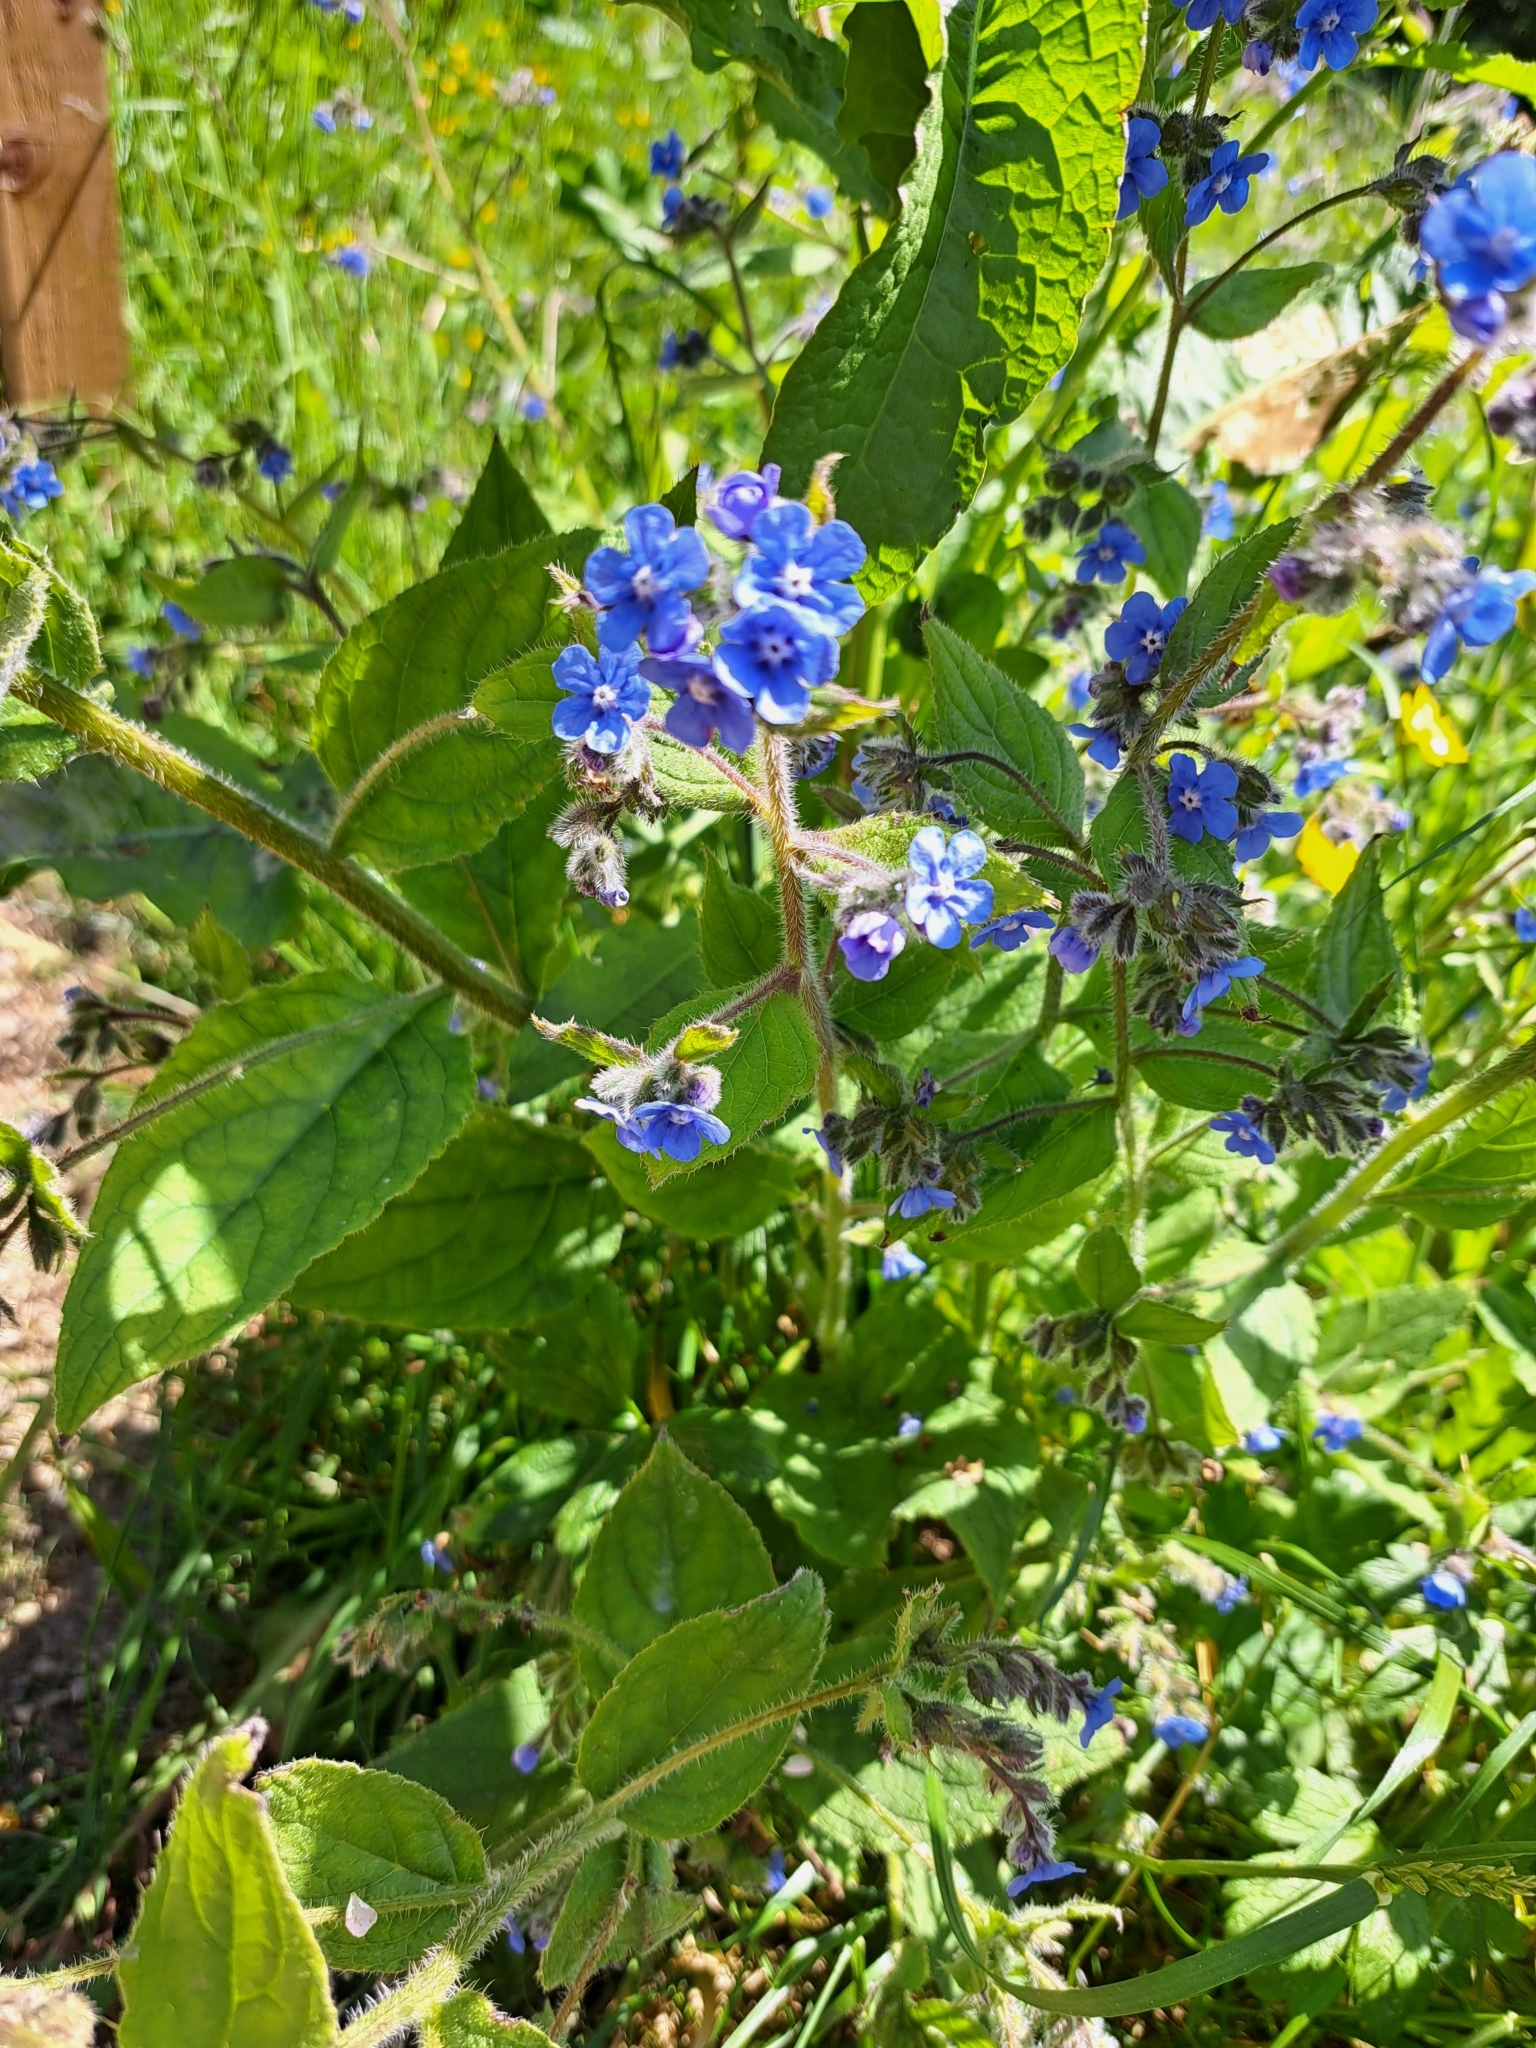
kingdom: Plantae
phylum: Tracheophyta
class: Magnoliopsida
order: Boraginales
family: Boraginaceae
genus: Pentaglottis
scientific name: Pentaglottis sempervirens
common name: Green alkanet
